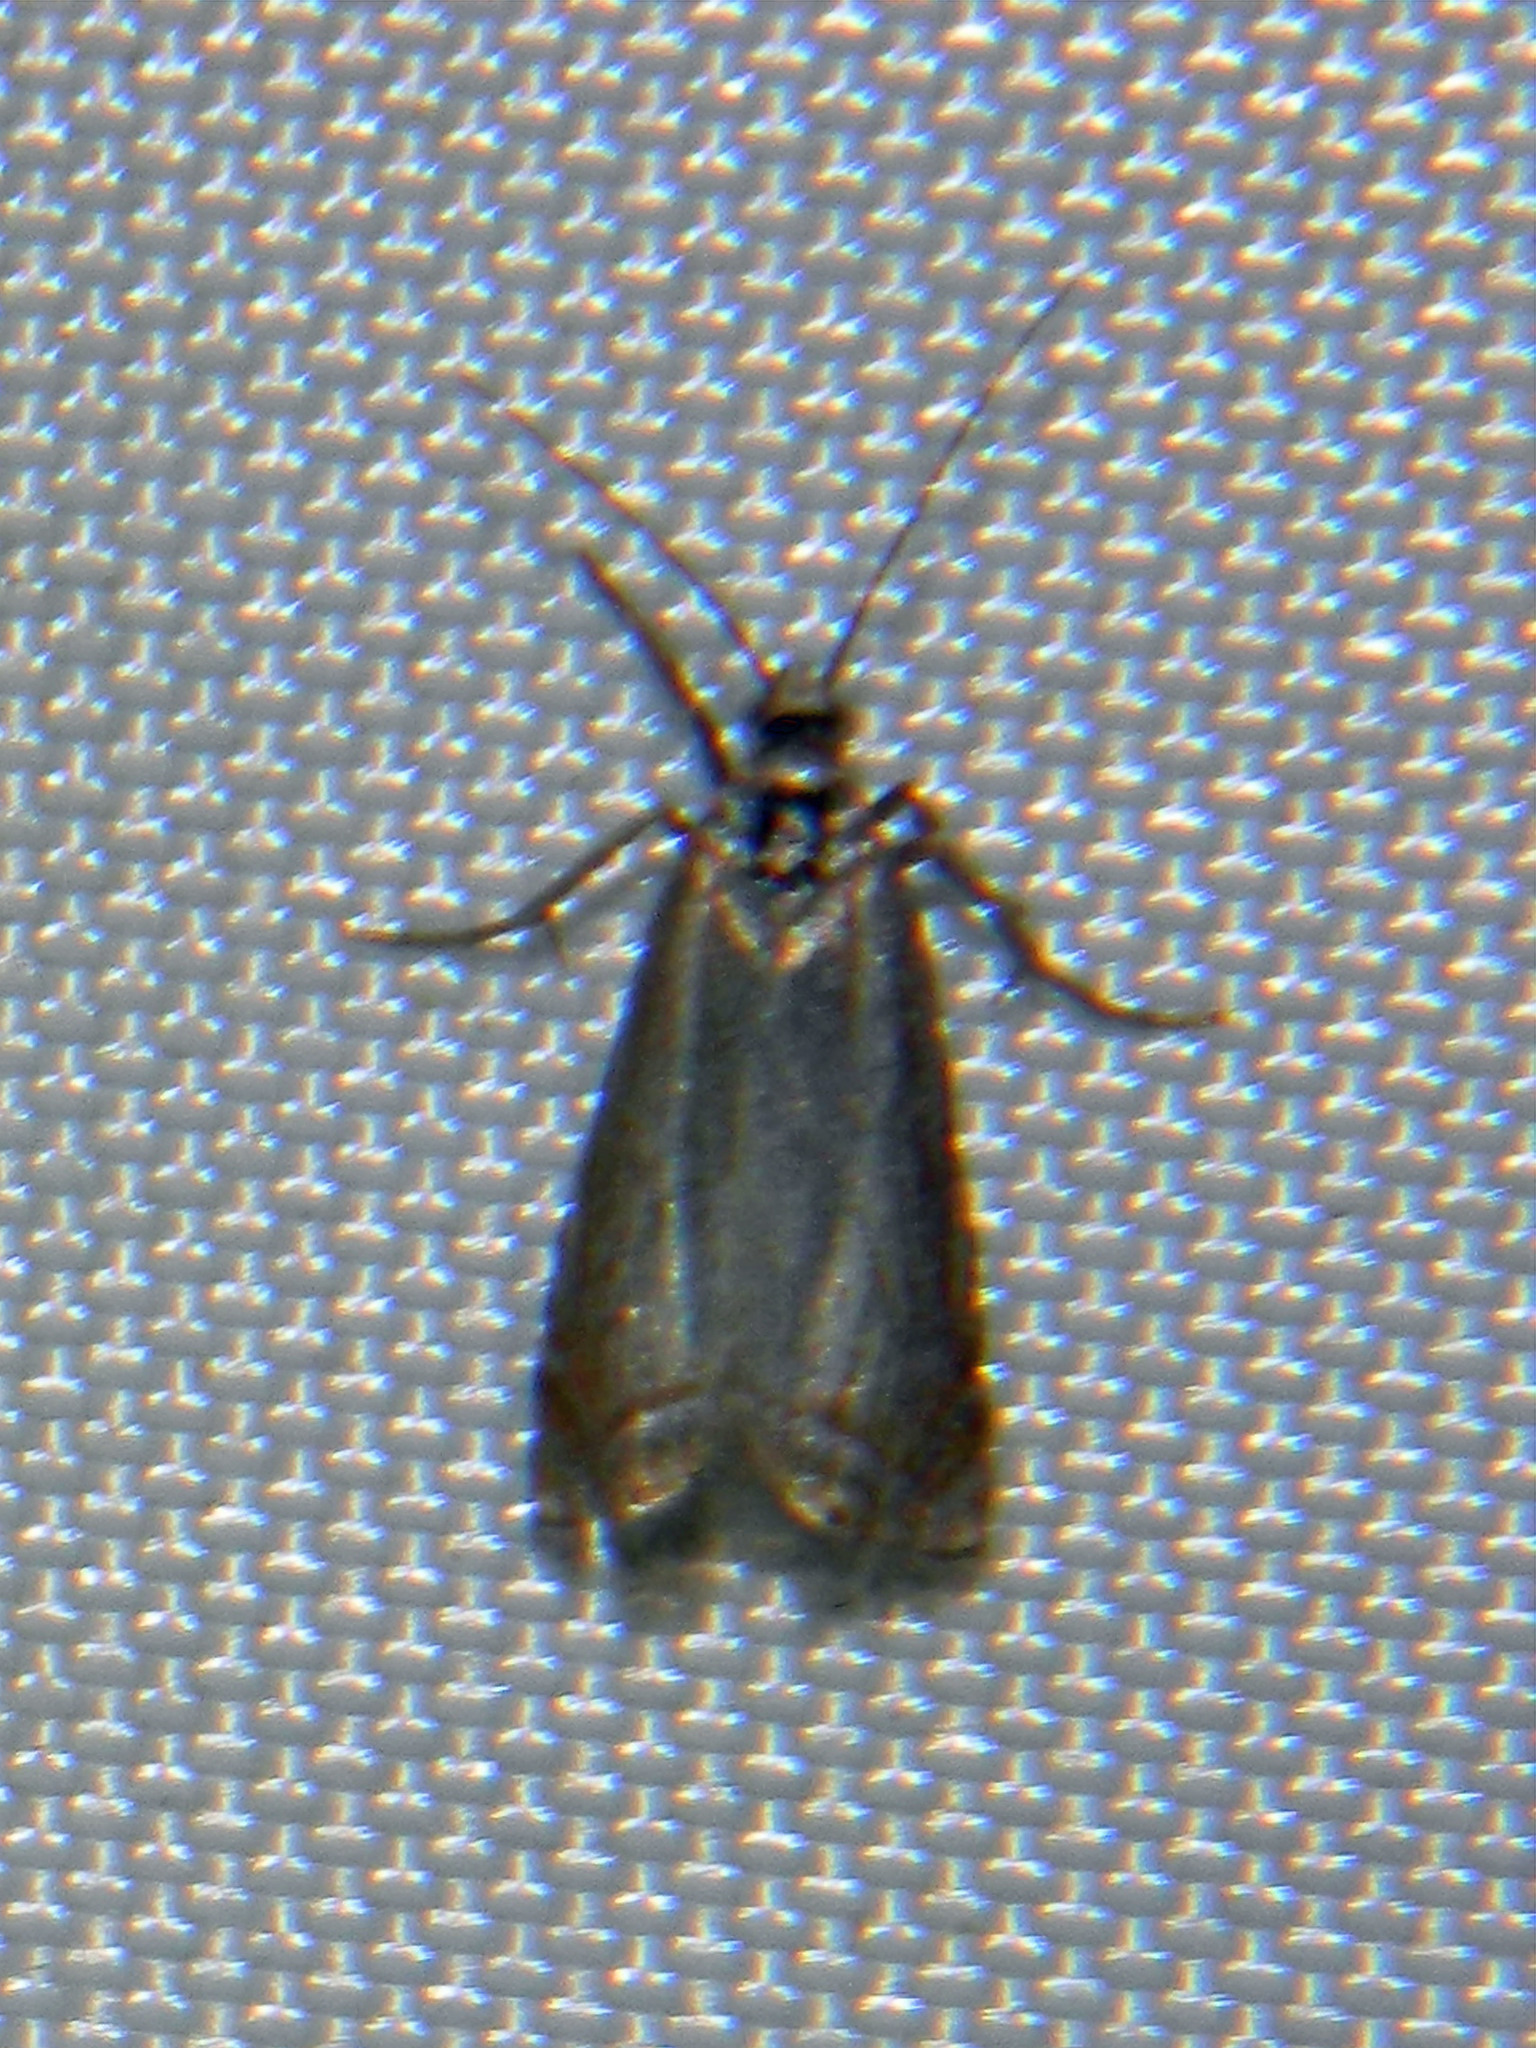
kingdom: Animalia
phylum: Arthropoda
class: Insecta
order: Lepidoptera
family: Crambidae
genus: Crambus
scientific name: Crambus albellus
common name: Small white grass-veneer
